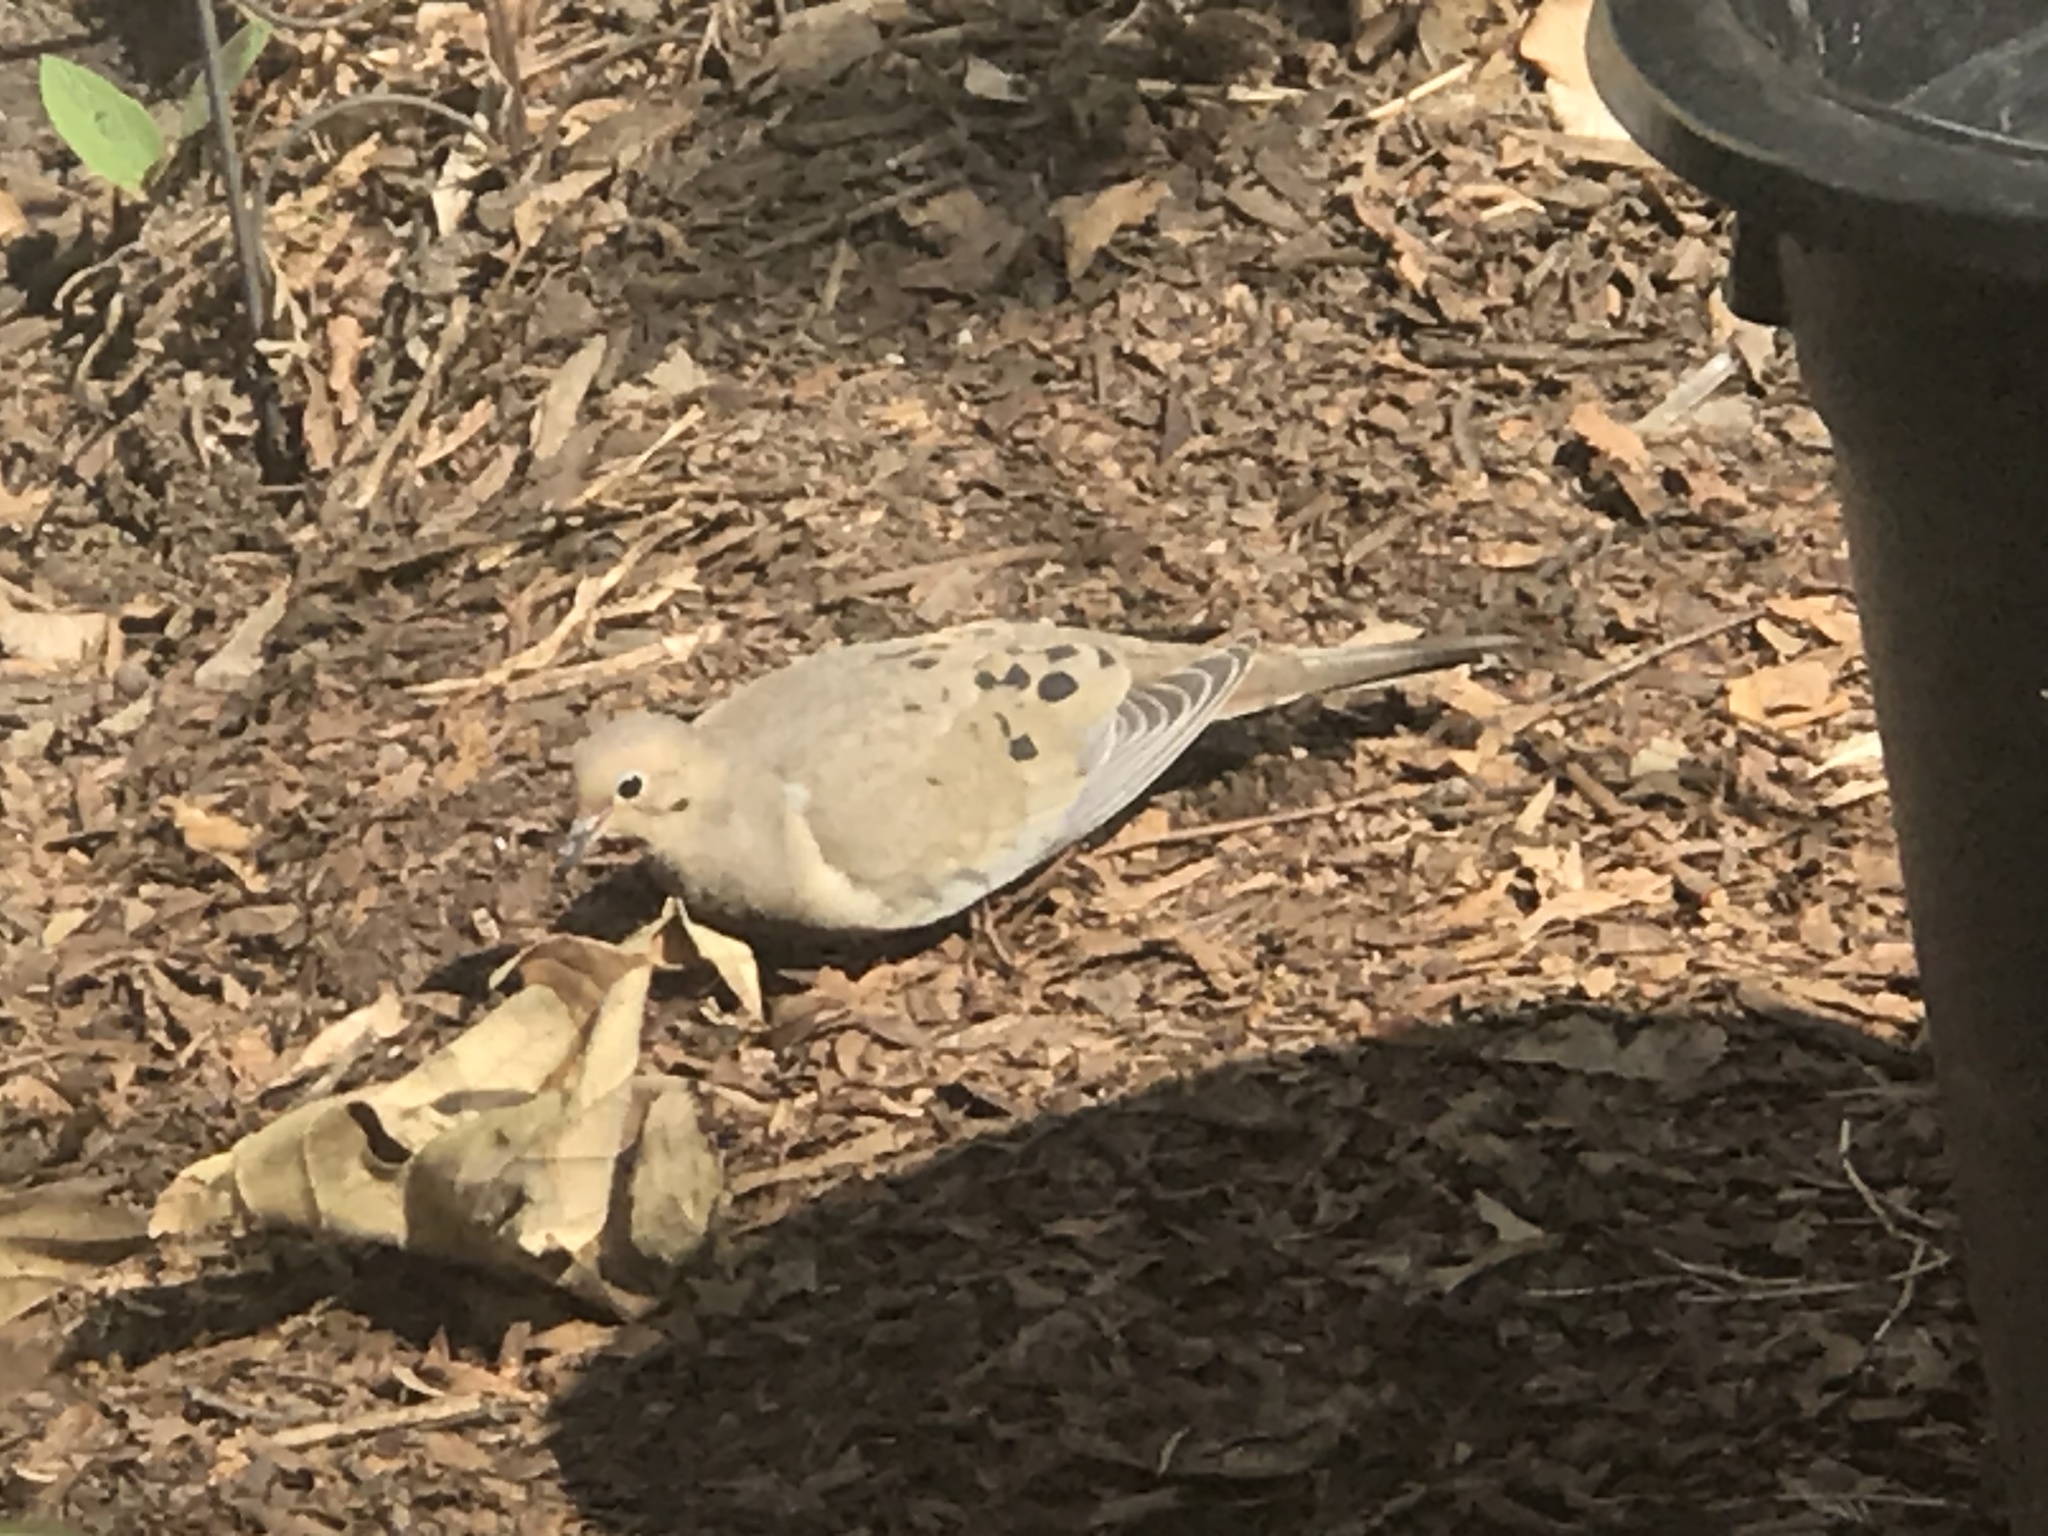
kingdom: Animalia
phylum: Chordata
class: Aves
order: Columbiformes
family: Columbidae
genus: Zenaida
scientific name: Zenaida macroura
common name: Mourning dove
